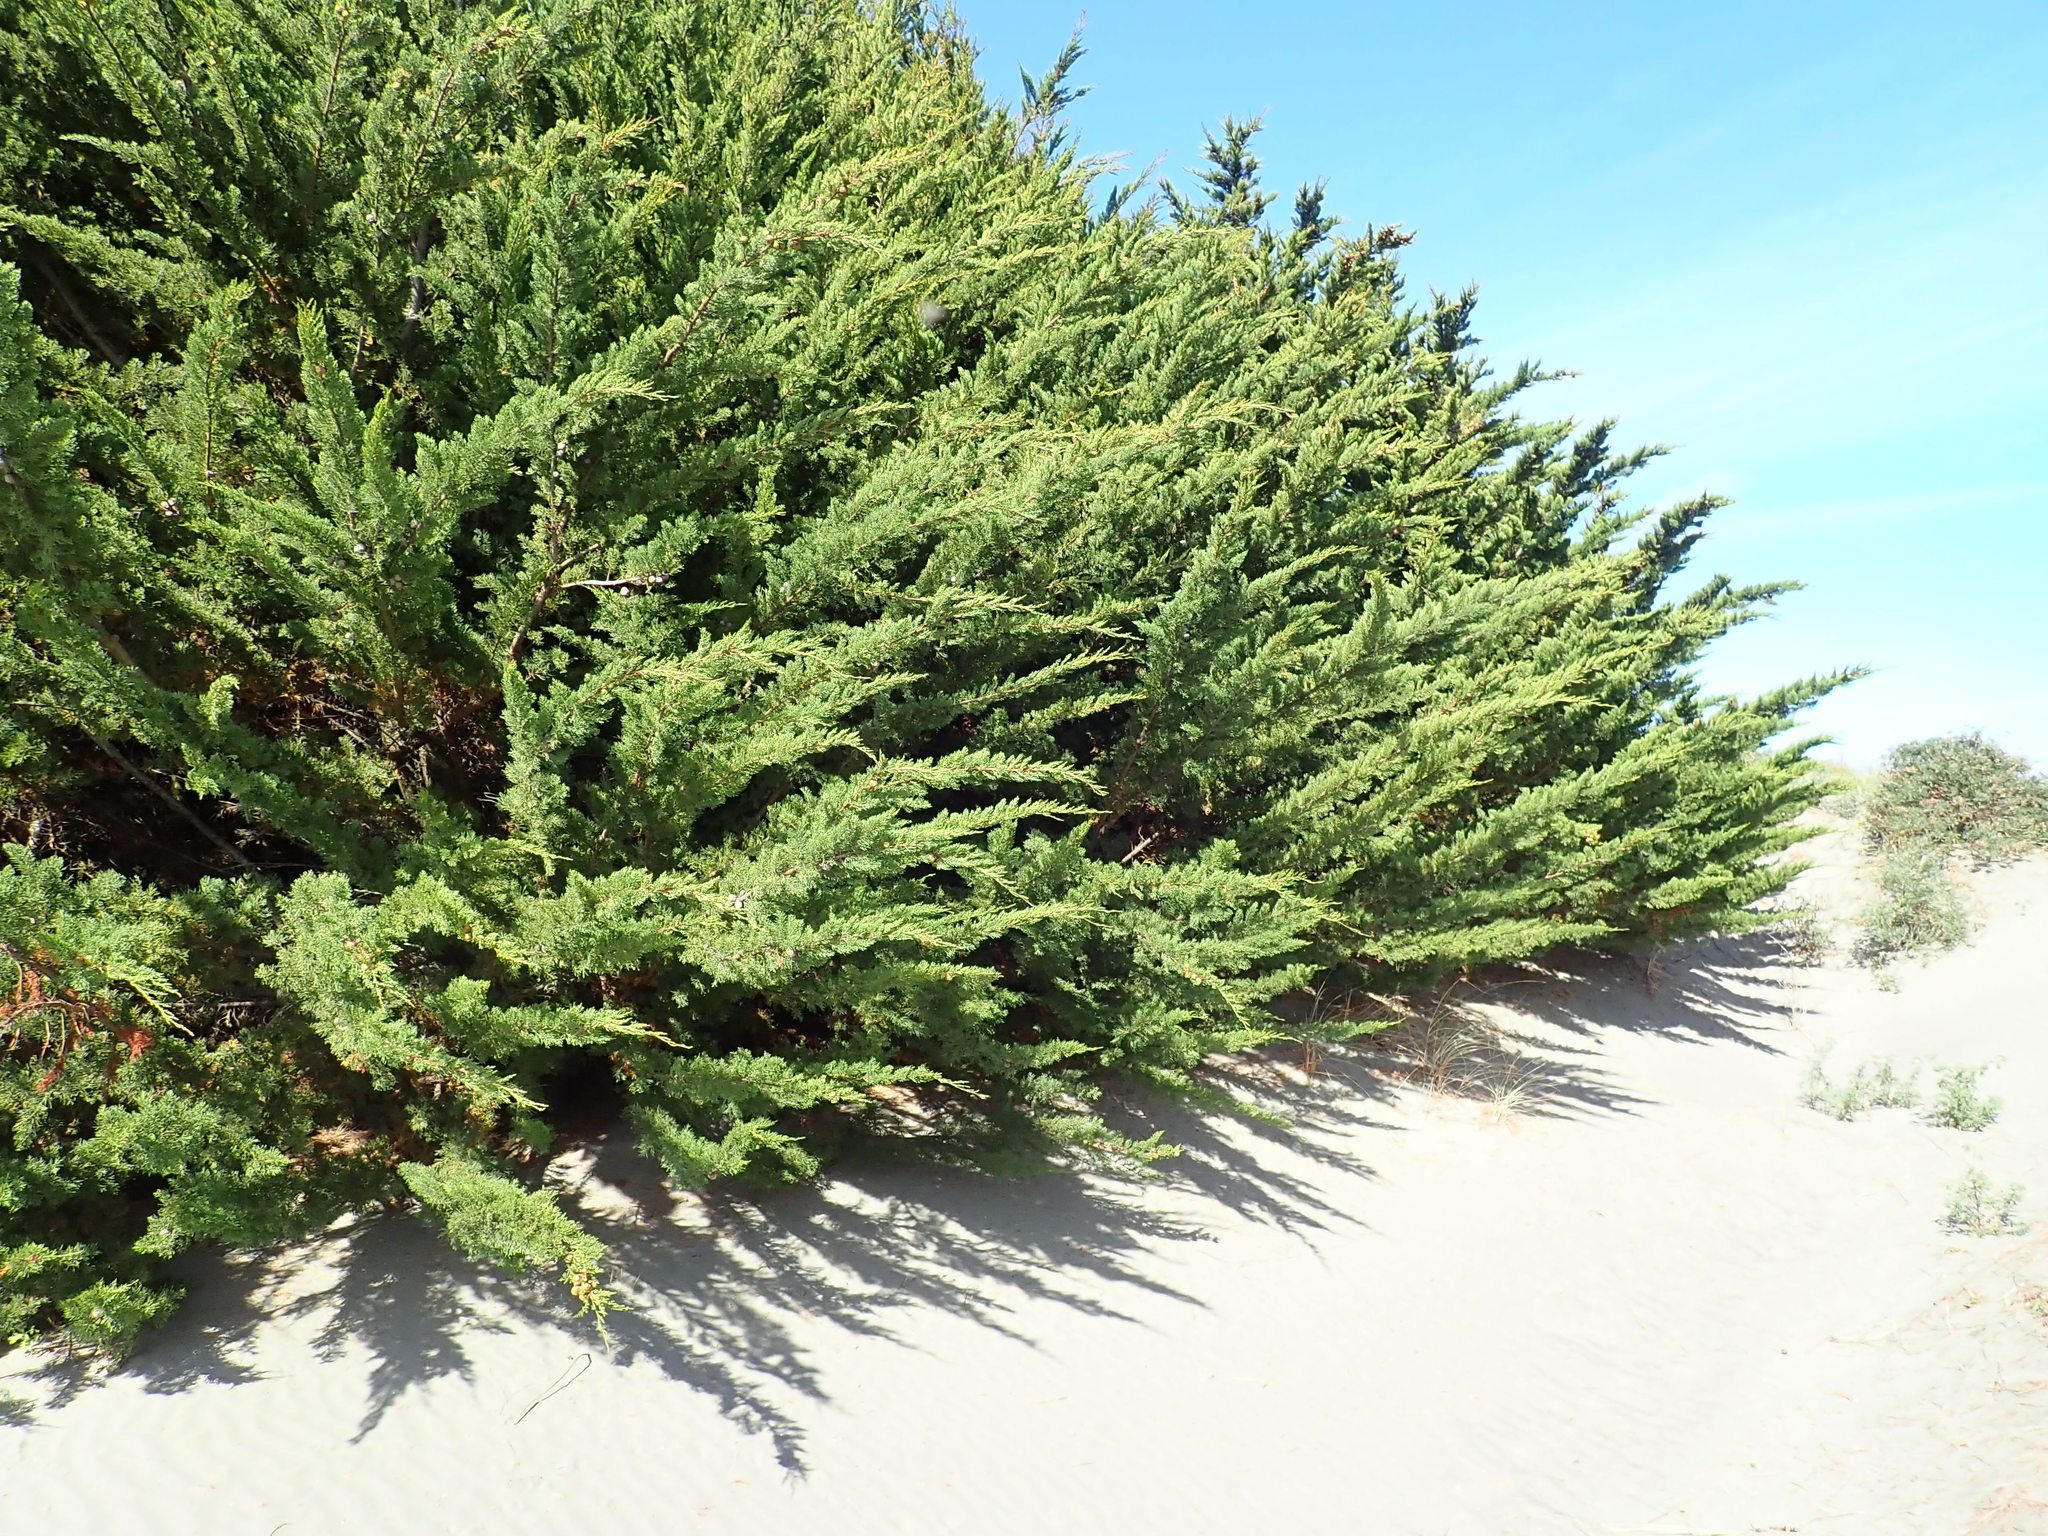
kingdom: Plantae
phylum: Tracheophyta
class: Pinopsida
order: Pinales
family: Cupressaceae
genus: Cupressus
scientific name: Cupressus macrocarpa
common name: Monterey cypress
